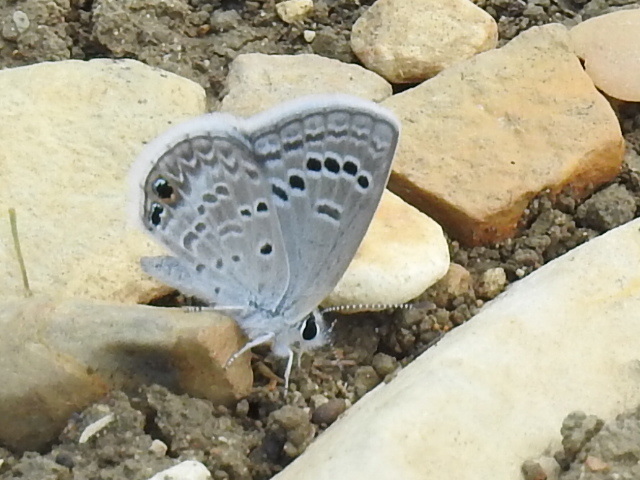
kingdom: Animalia
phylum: Arthropoda
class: Insecta
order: Lepidoptera
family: Lycaenidae
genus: Echinargus
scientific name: Echinargus isola
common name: Reakirt's blue
